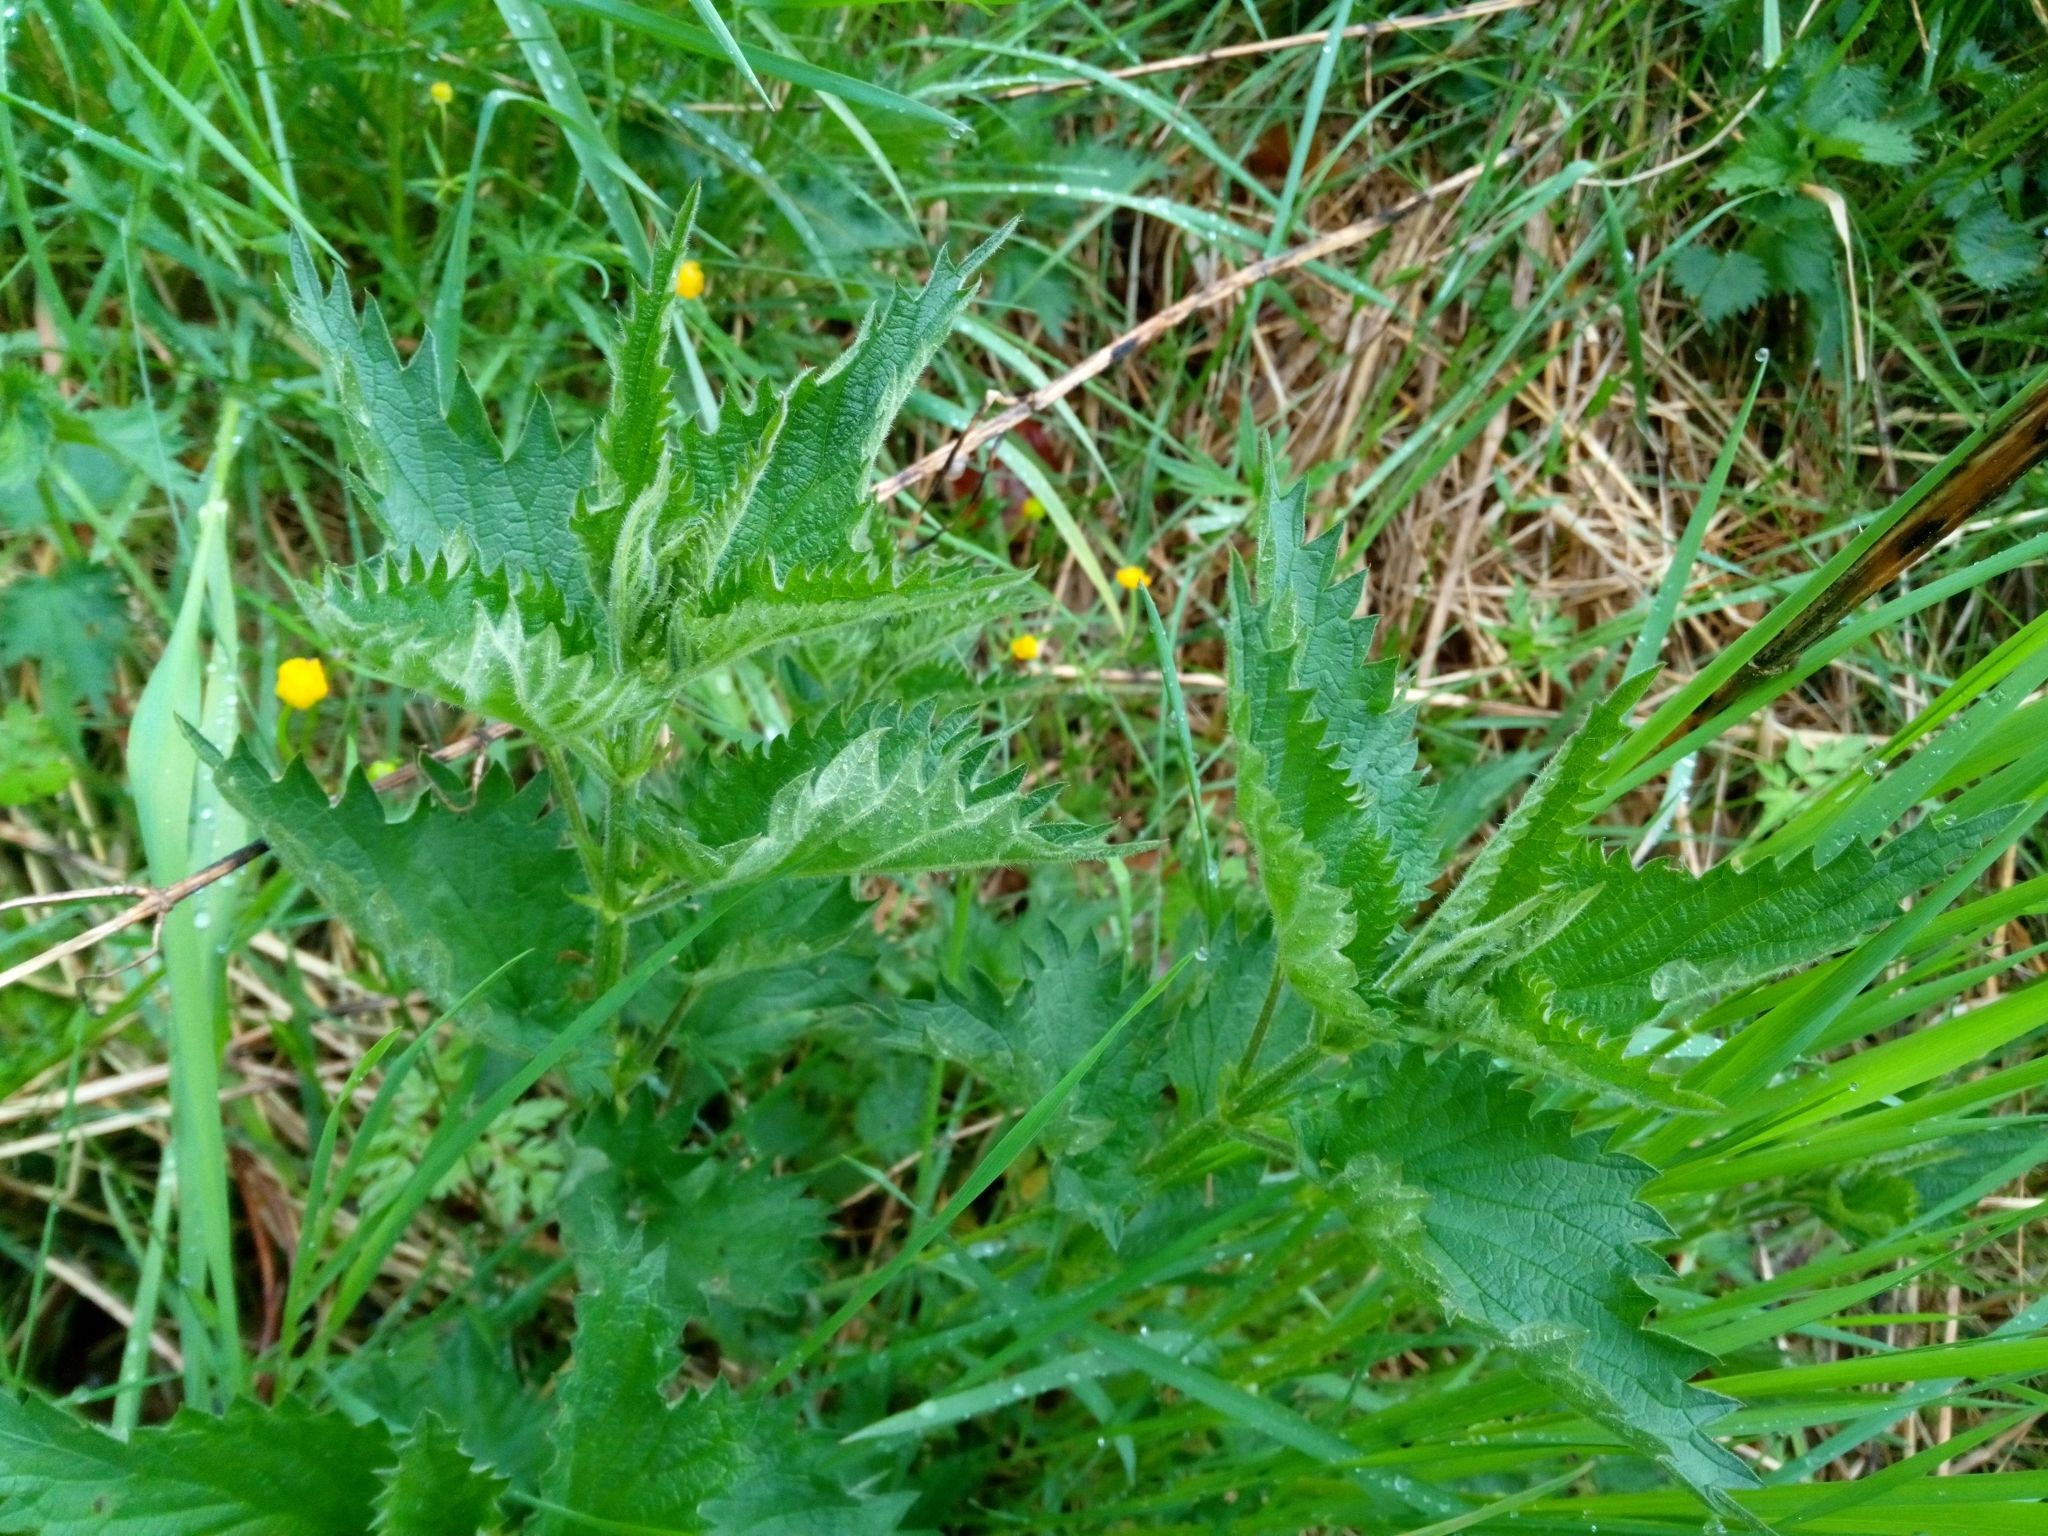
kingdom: Plantae
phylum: Tracheophyta
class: Magnoliopsida
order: Rosales
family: Urticaceae
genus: Urtica
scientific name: Urtica dioica
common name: Common nettle
